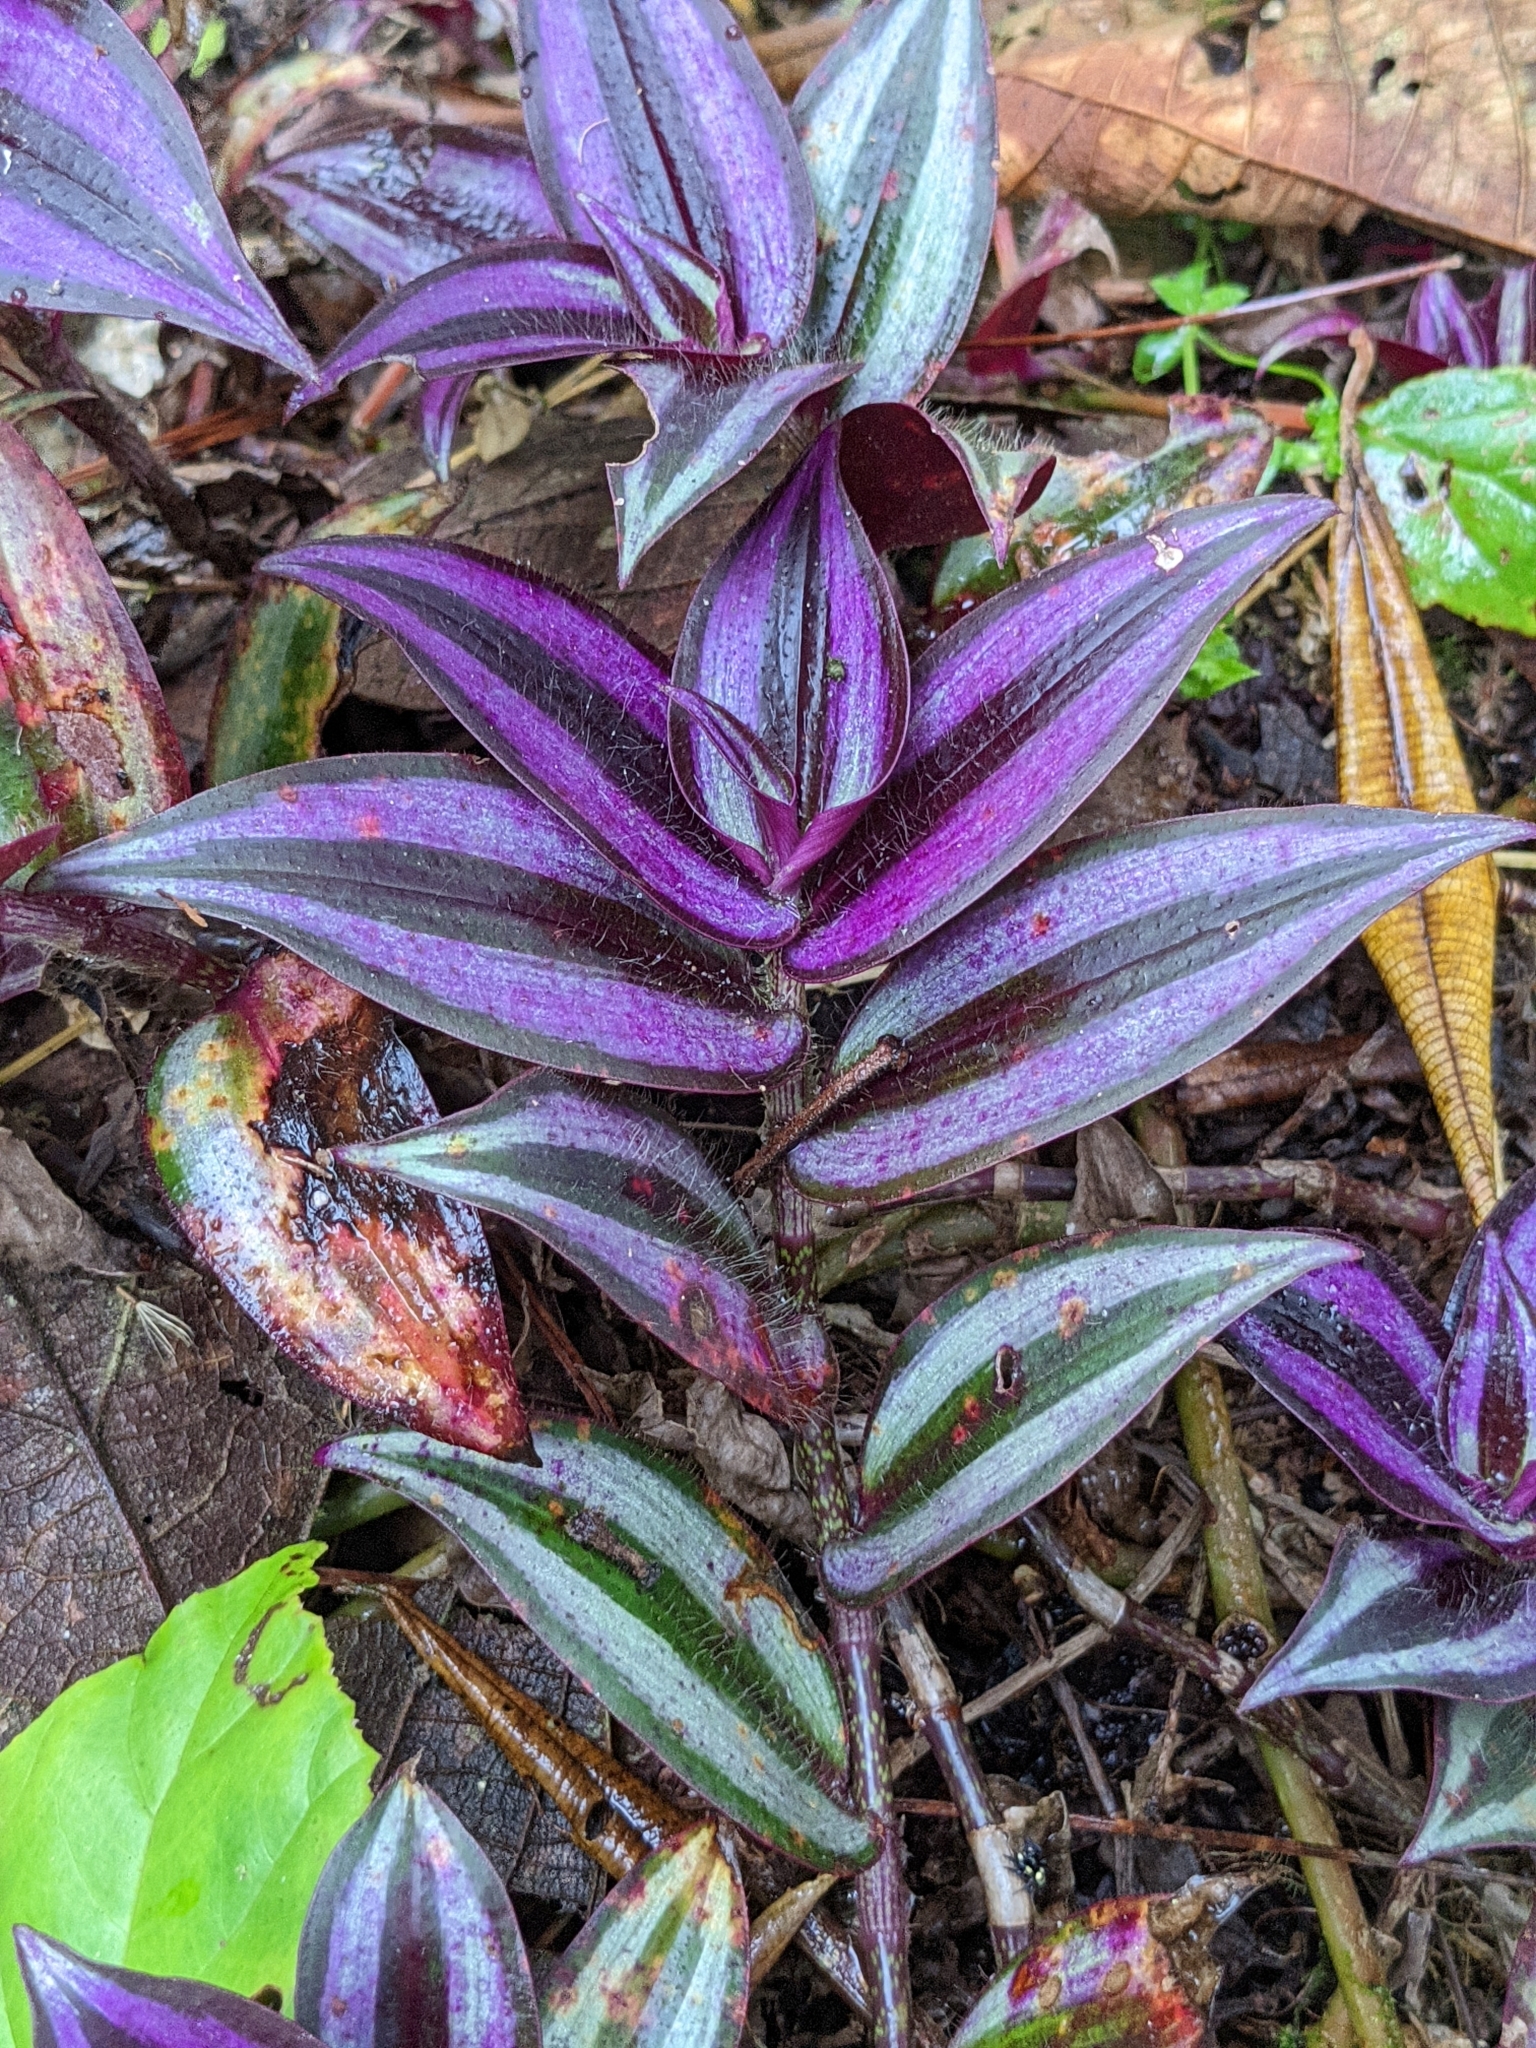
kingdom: Plantae
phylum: Tracheophyta
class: Liliopsida
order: Commelinales
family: Commelinaceae
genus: Tradescantia
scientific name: Tradescantia zebrina
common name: Inchplant
